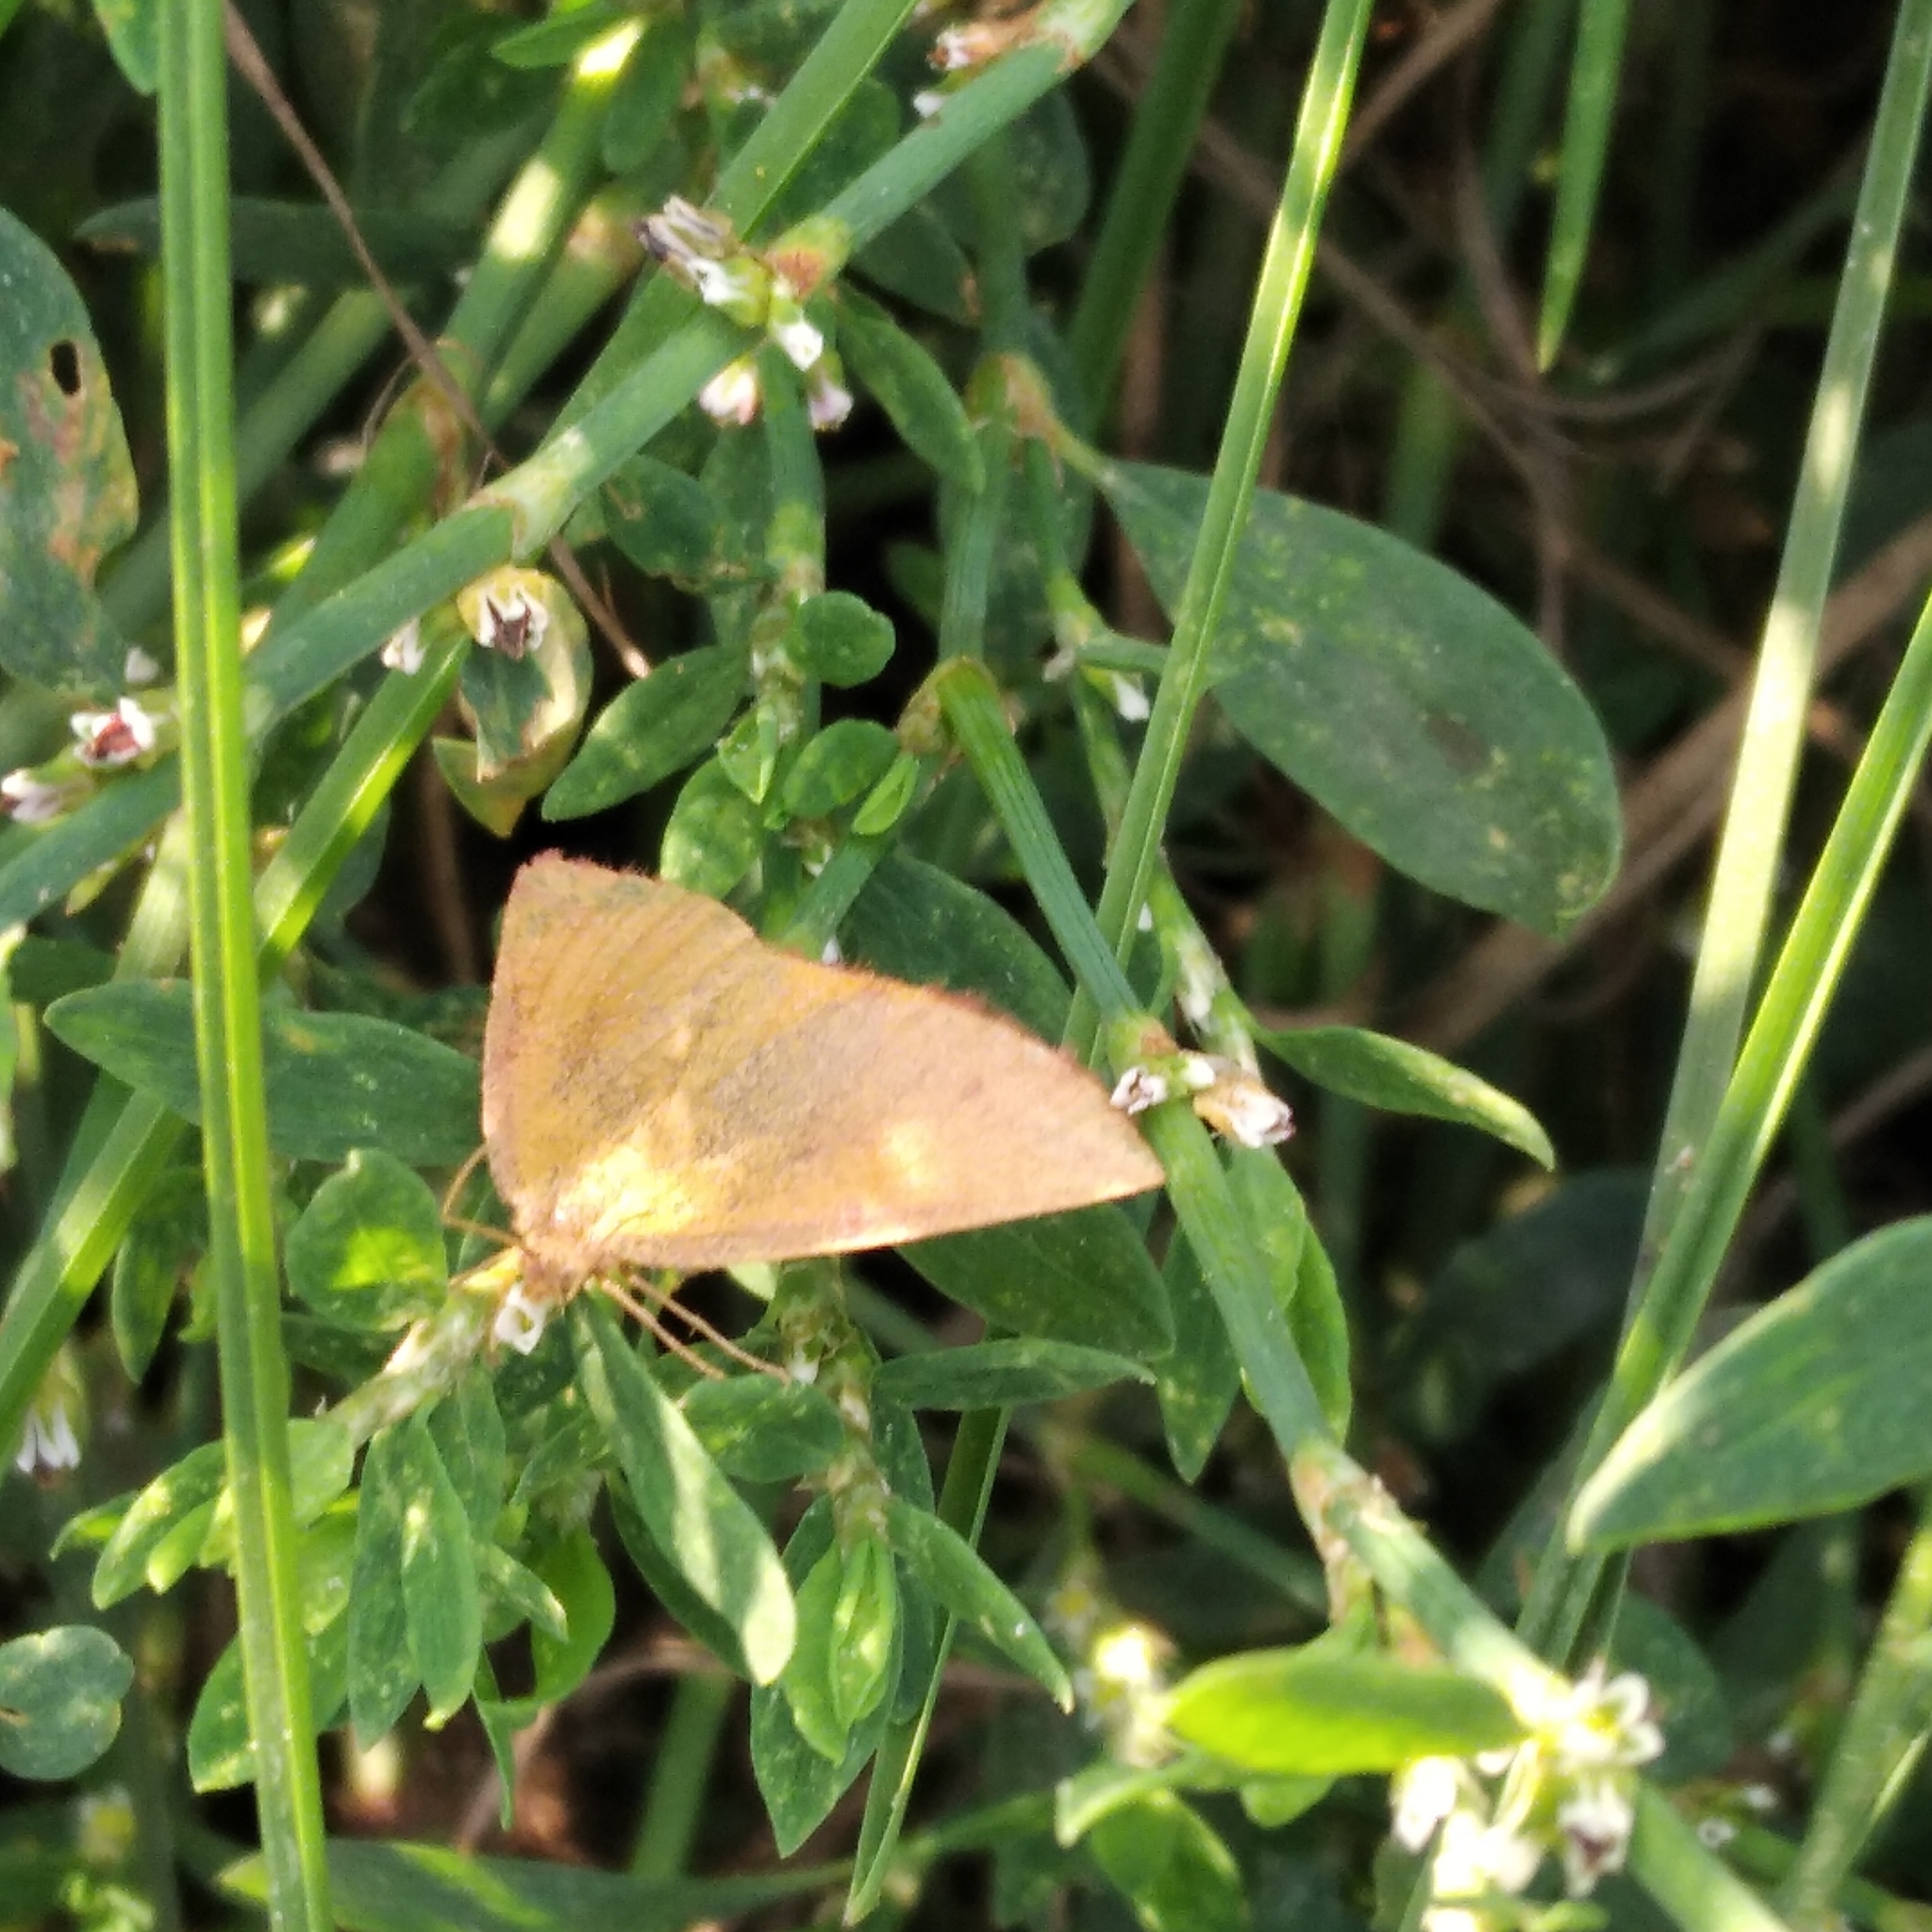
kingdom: Animalia
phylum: Arthropoda
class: Insecta
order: Lepidoptera
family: Geometridae
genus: Lythria
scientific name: Lythria purpuraria
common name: Purple-barred yellow
